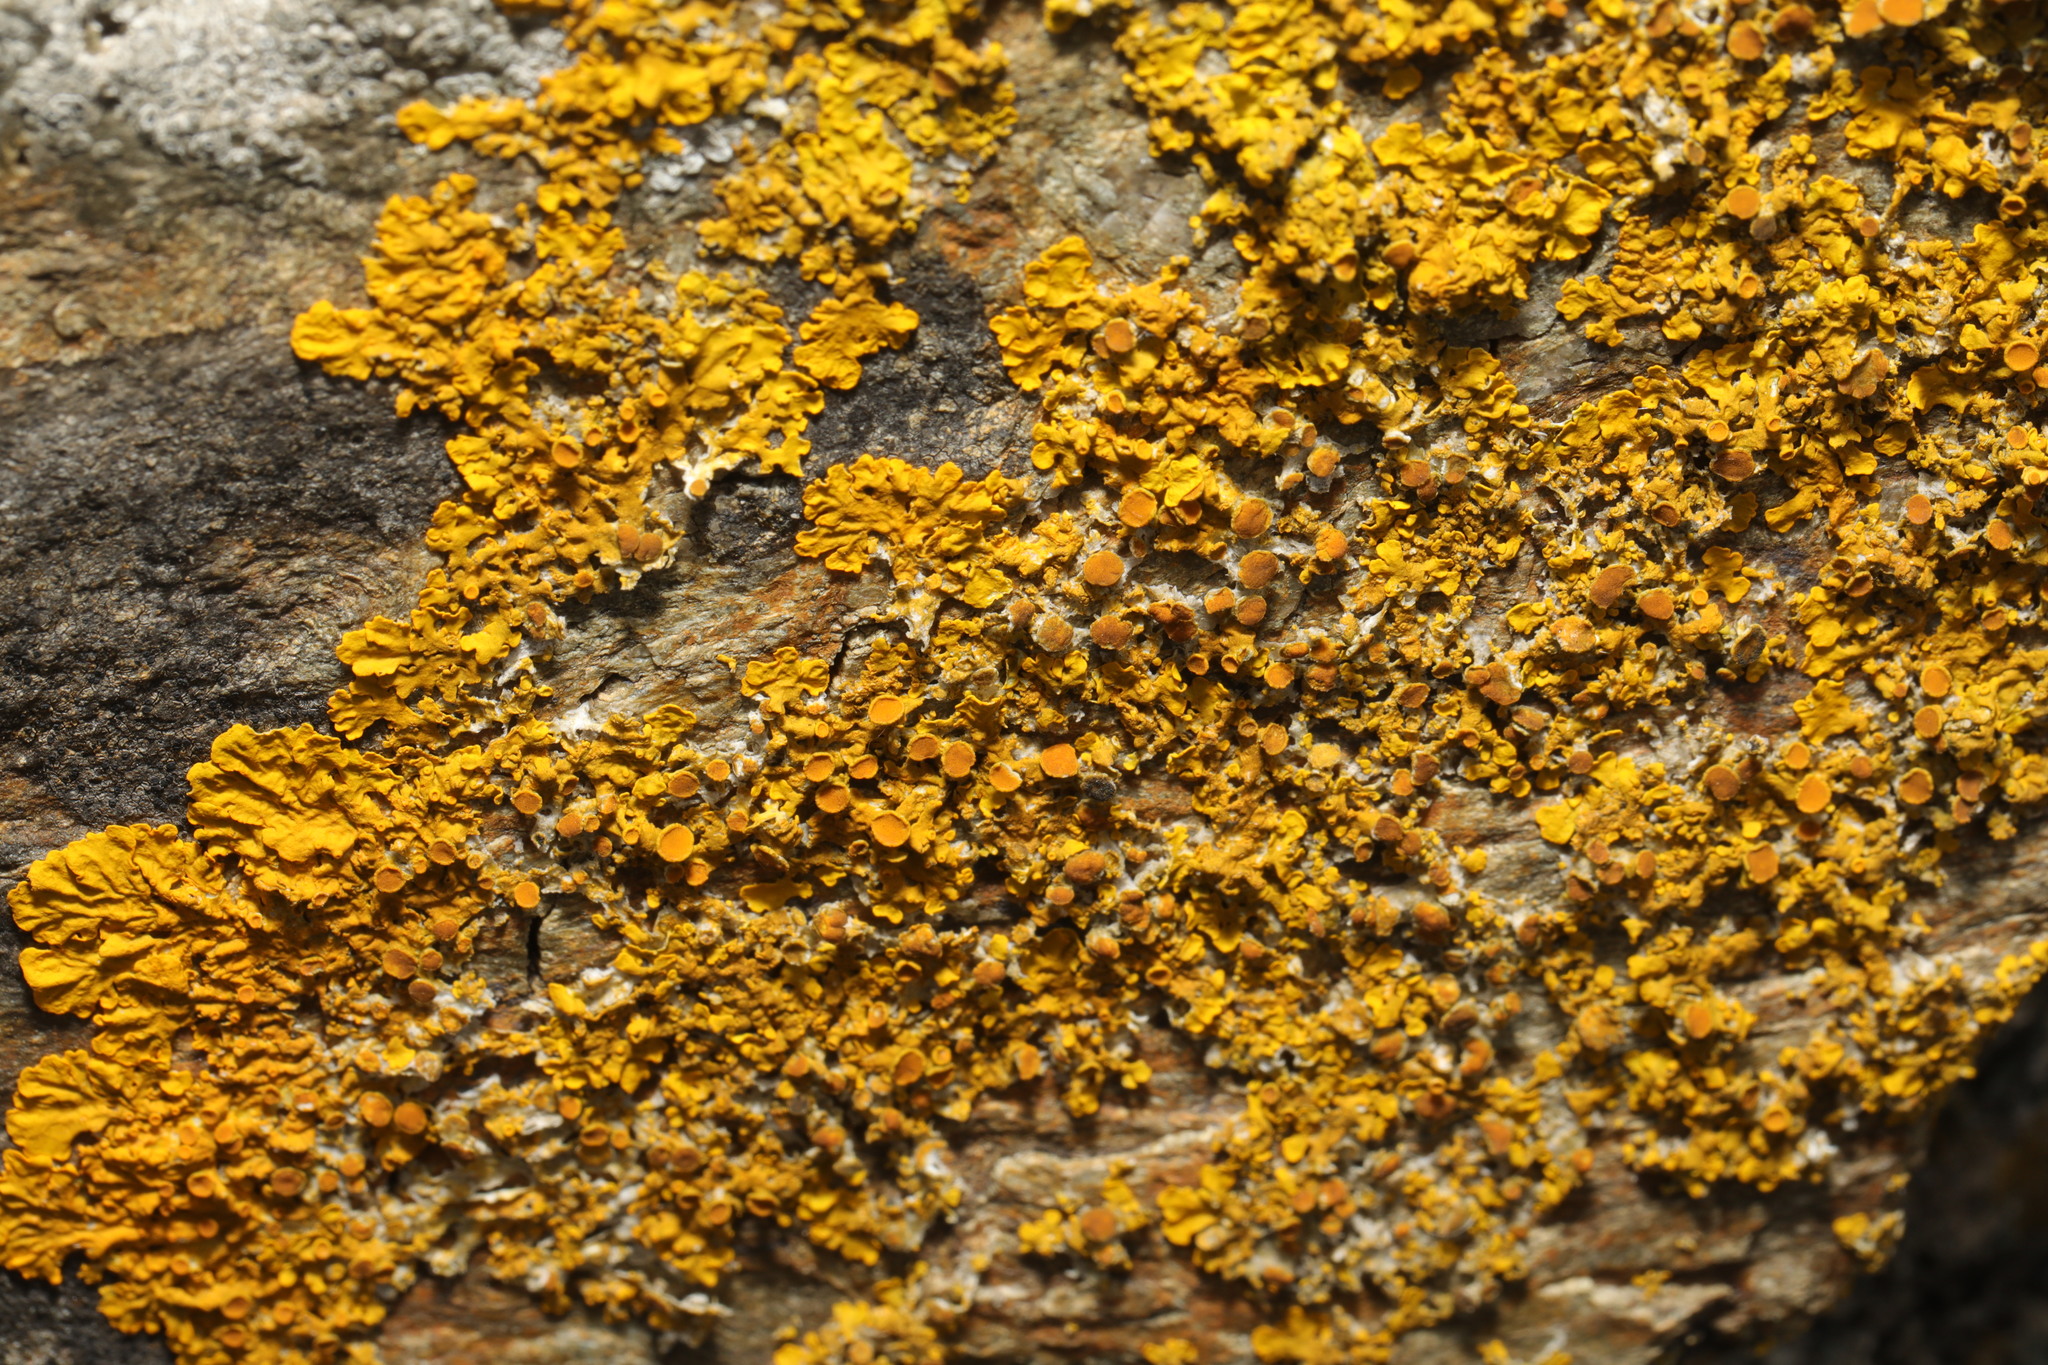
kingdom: Fungi
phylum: Ascomycota
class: Lecanoromycetes
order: Teloschistales
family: Teloschistaceae
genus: Xanthoria
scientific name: Xanthoria parietina
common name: Common orange lichen
